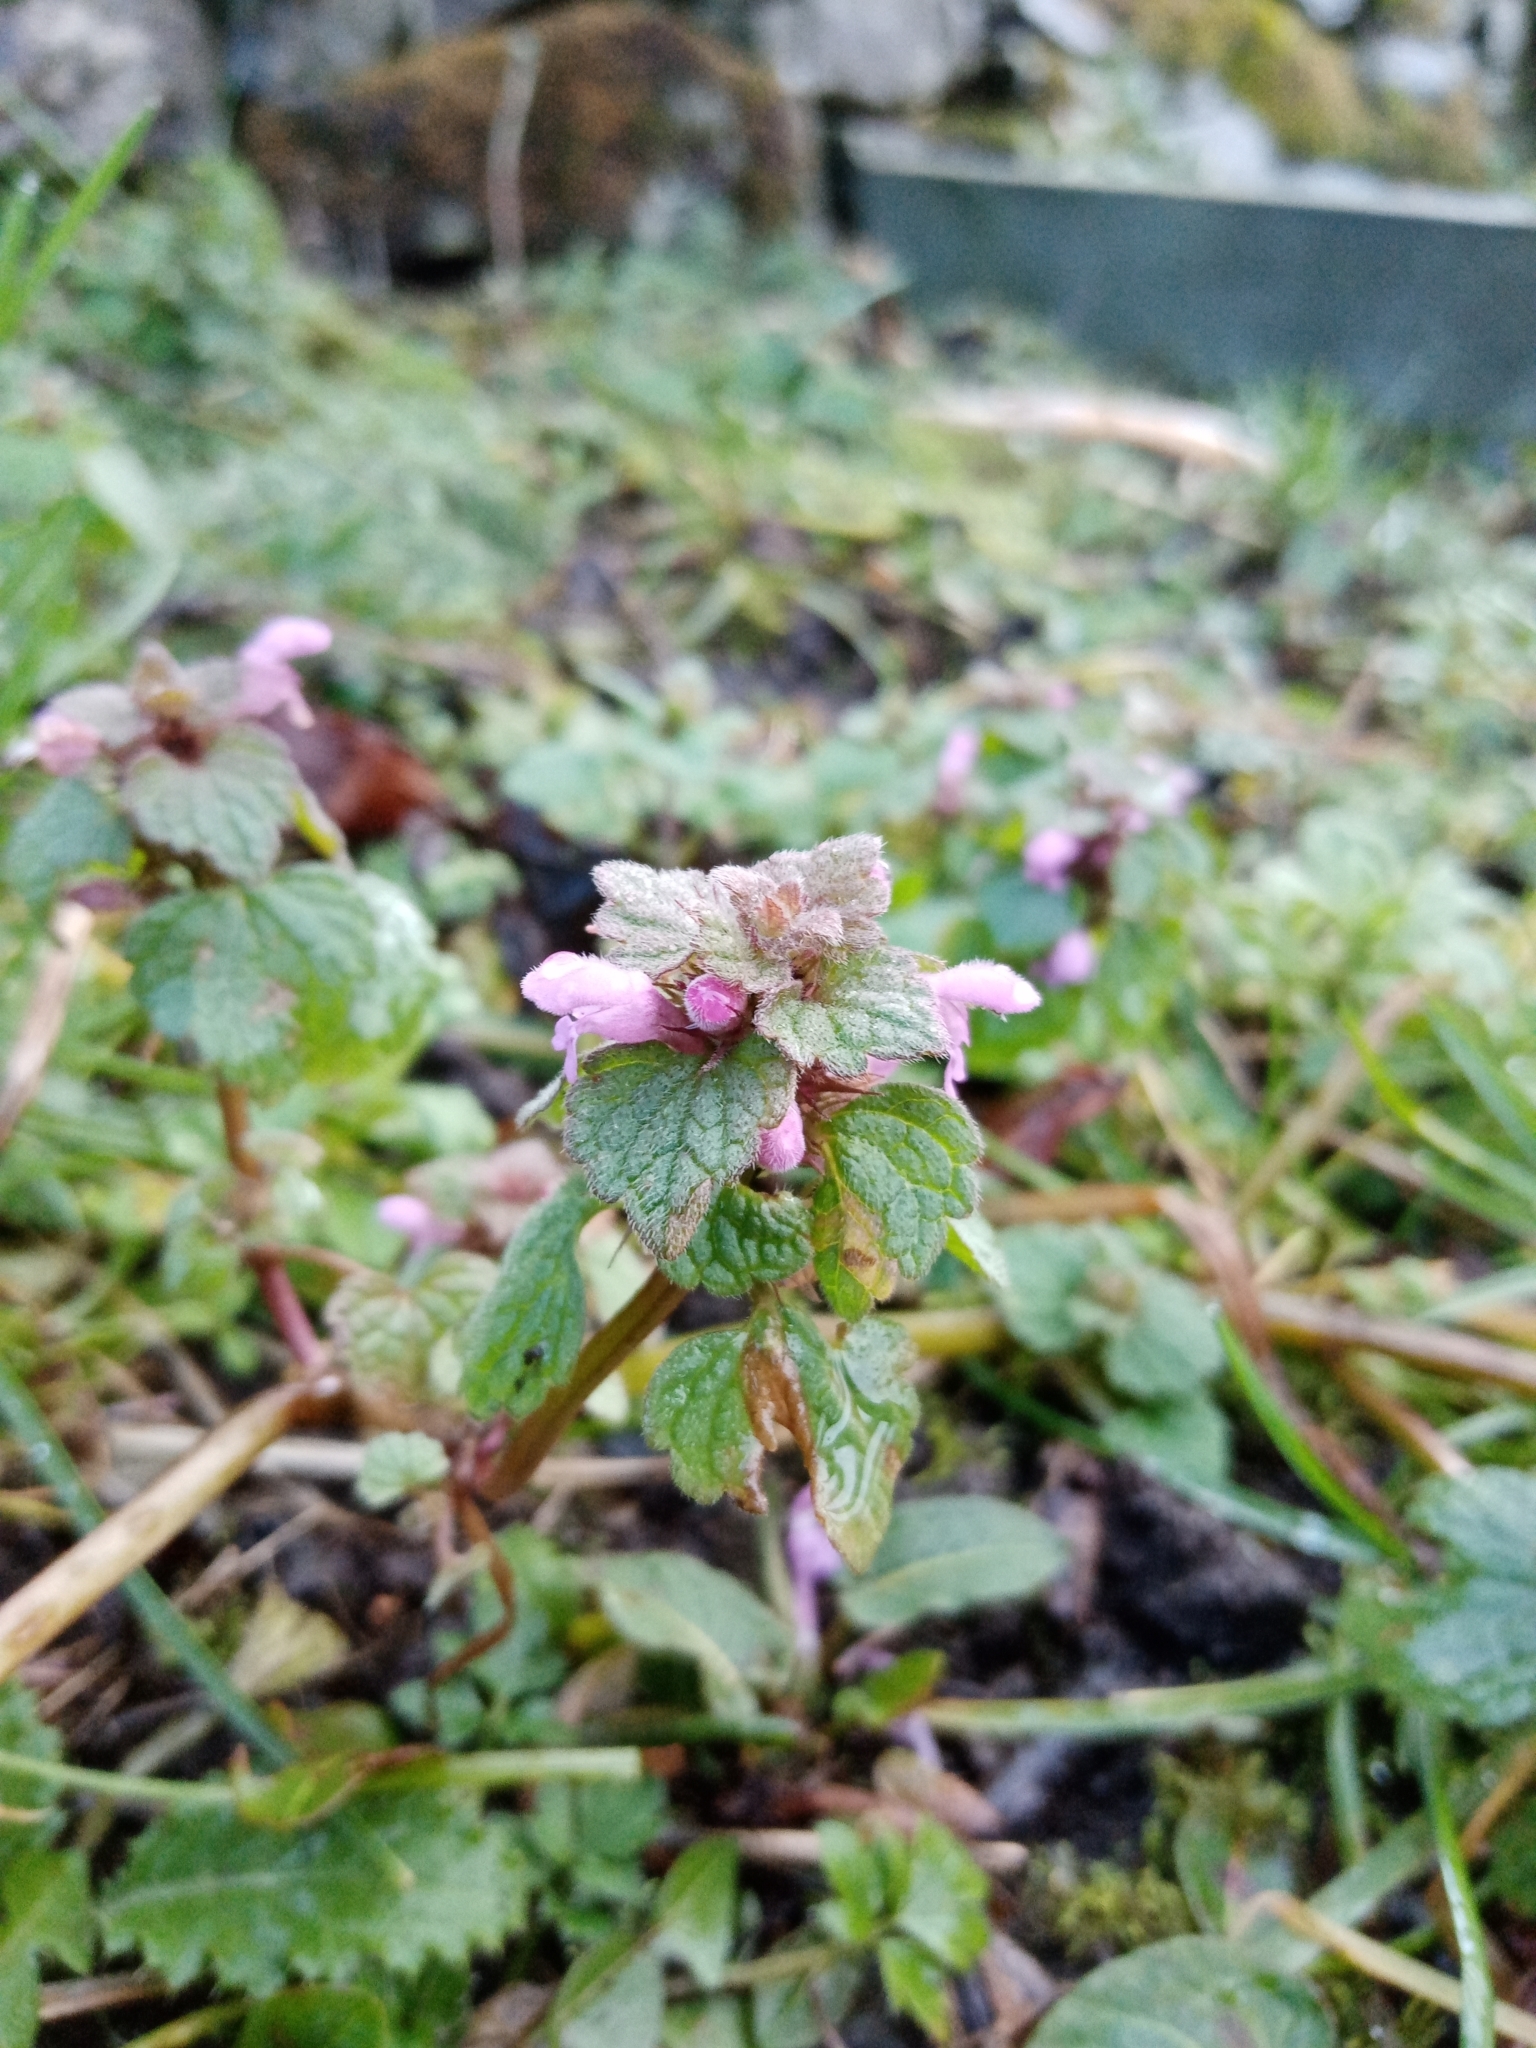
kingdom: Plantae
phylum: Tracheophyta
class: Magnoliopsida
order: Lamiales
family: Lamiaceae
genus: Lamium
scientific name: Lamium purpureum
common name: Red dead-nettle
